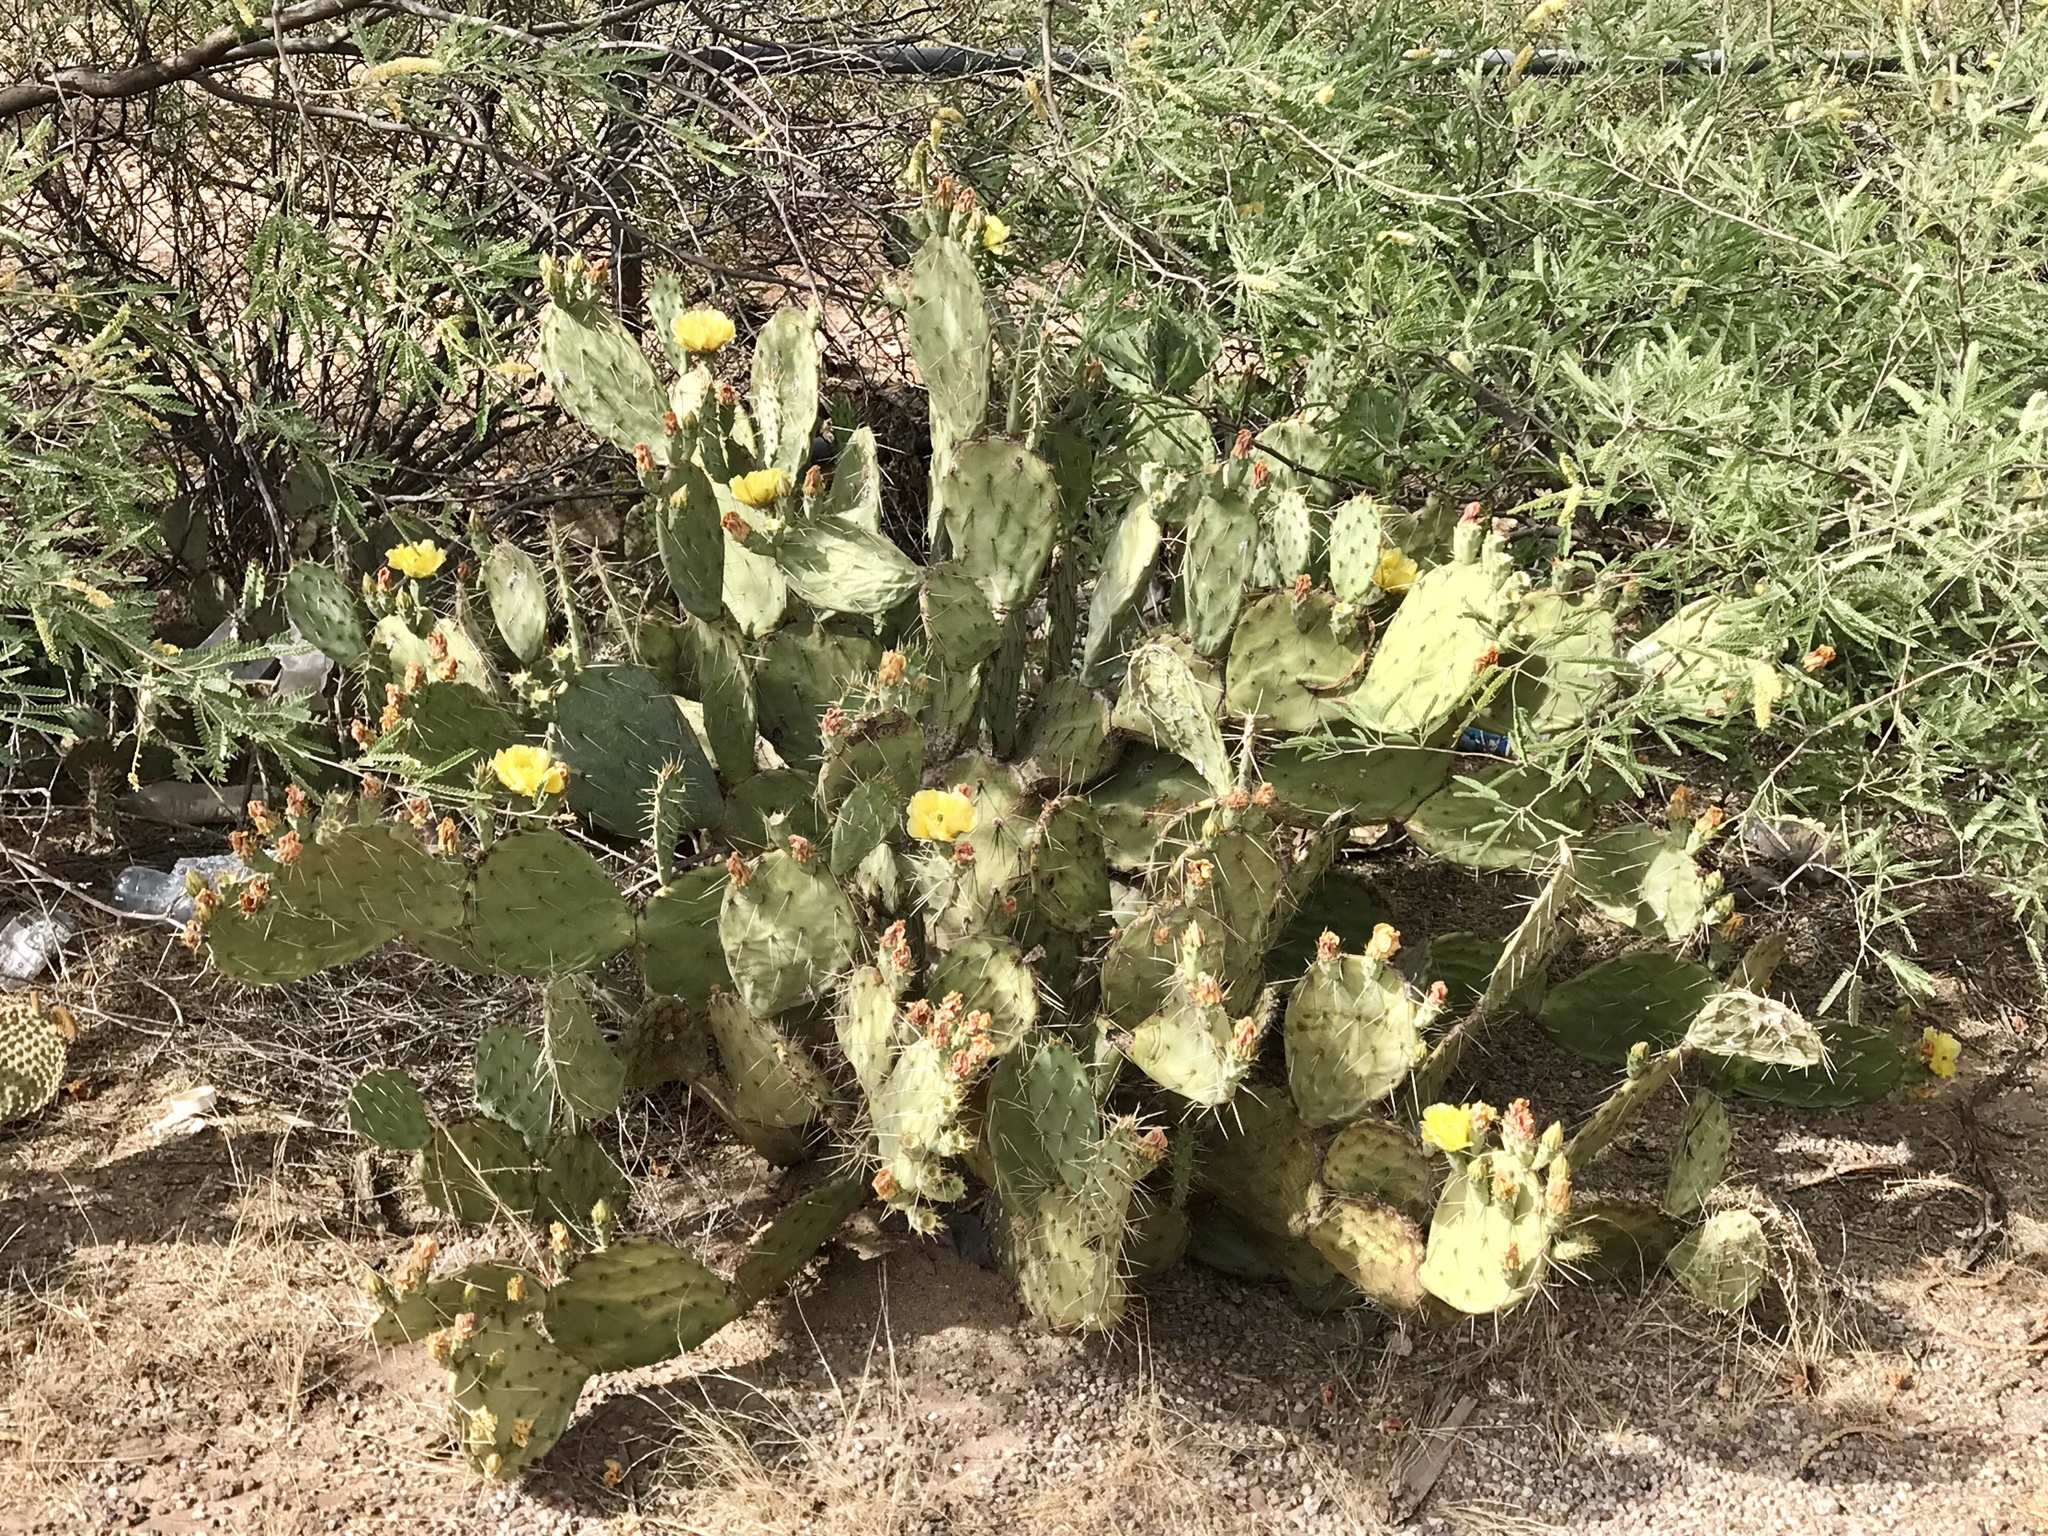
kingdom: Plantae
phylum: Tracheophyta
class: Magnoliopsida
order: Caryophyllales
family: Cactaceae
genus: Opuntia
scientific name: Opuntia engelmannii
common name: Cactus-apple
